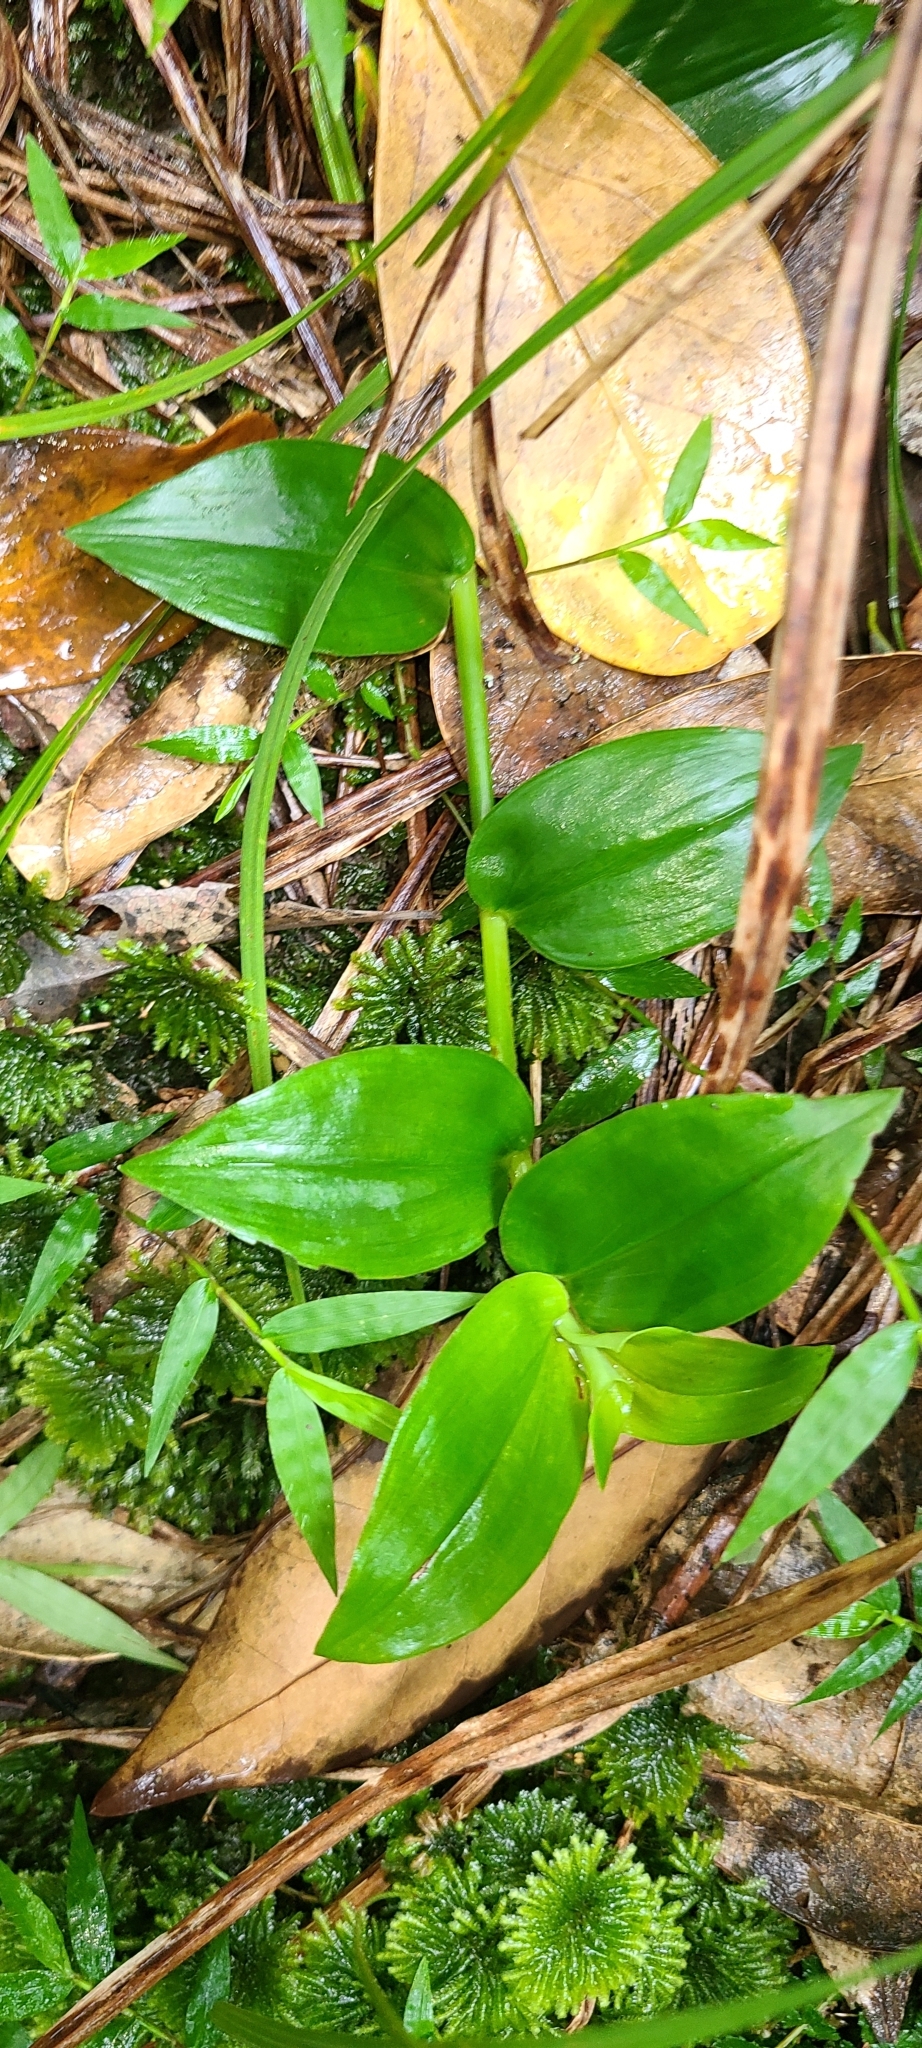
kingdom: Plantae
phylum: Tracheophyta
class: Liliopsida
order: Commelinales
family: Commelinaceae
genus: Tradescantia
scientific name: Tradescantia fluminensis
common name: Wandering-jew
